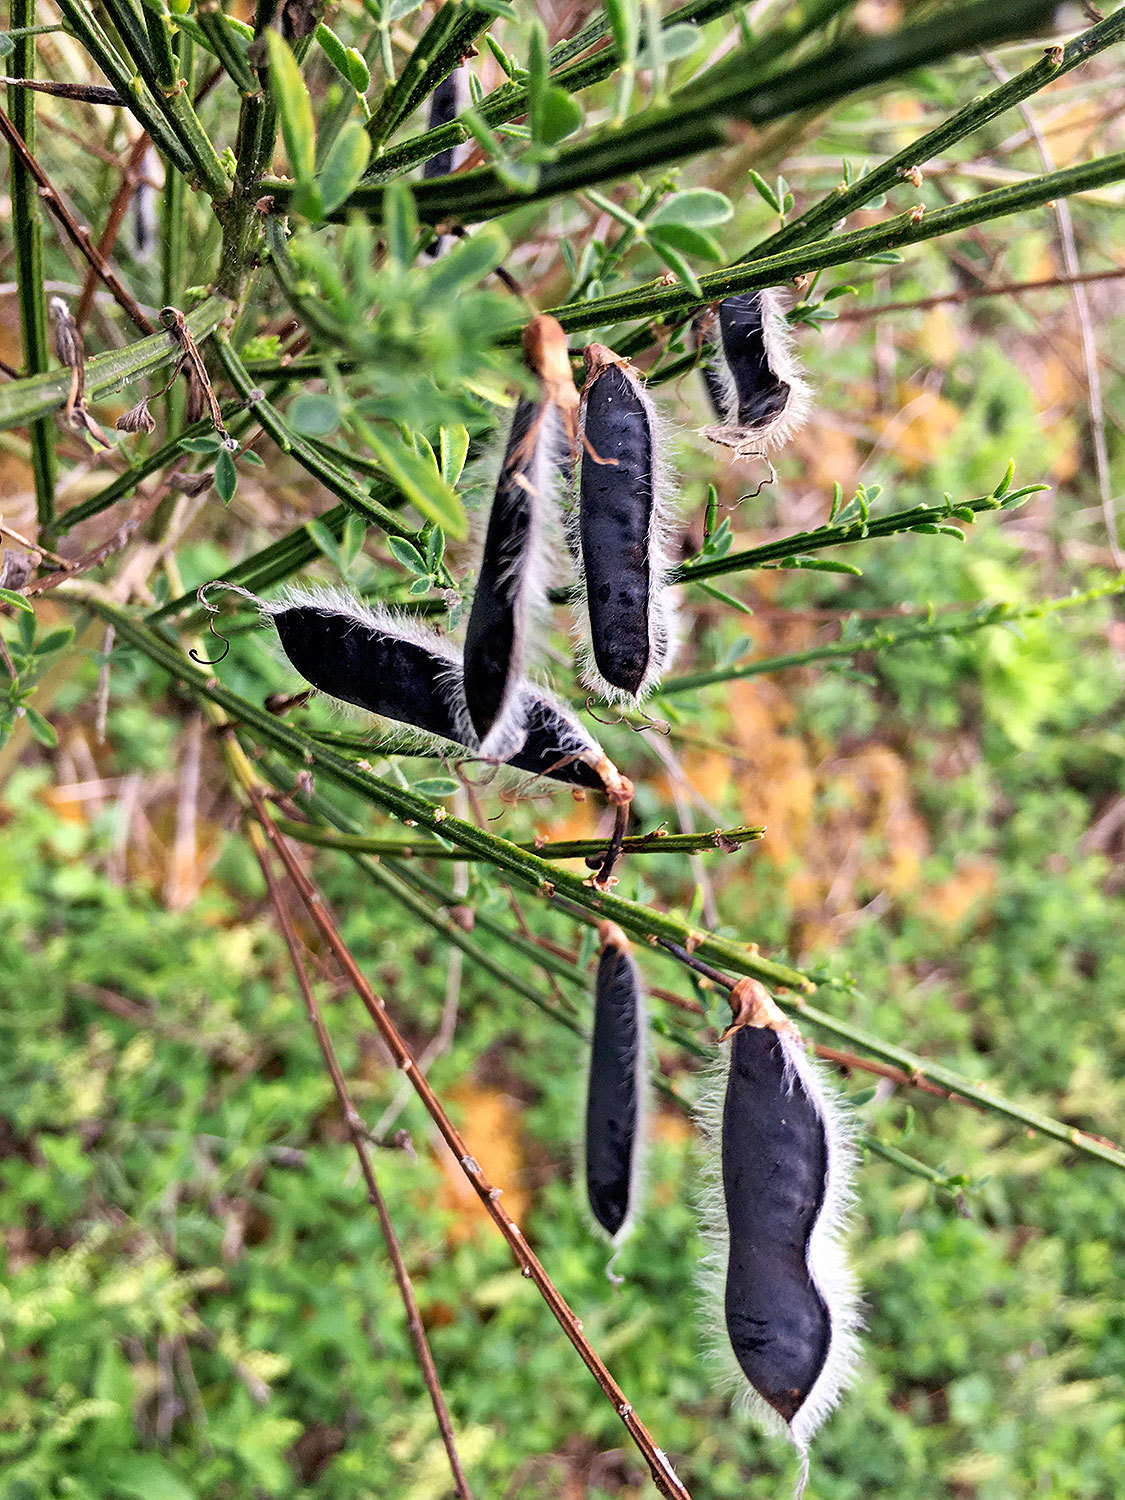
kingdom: Plantae
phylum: Tracheophyta
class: Magnoliopsida
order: Fabales
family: Fabaceae
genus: Cytisus
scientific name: Cytisus scoparius
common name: Scotch broom
